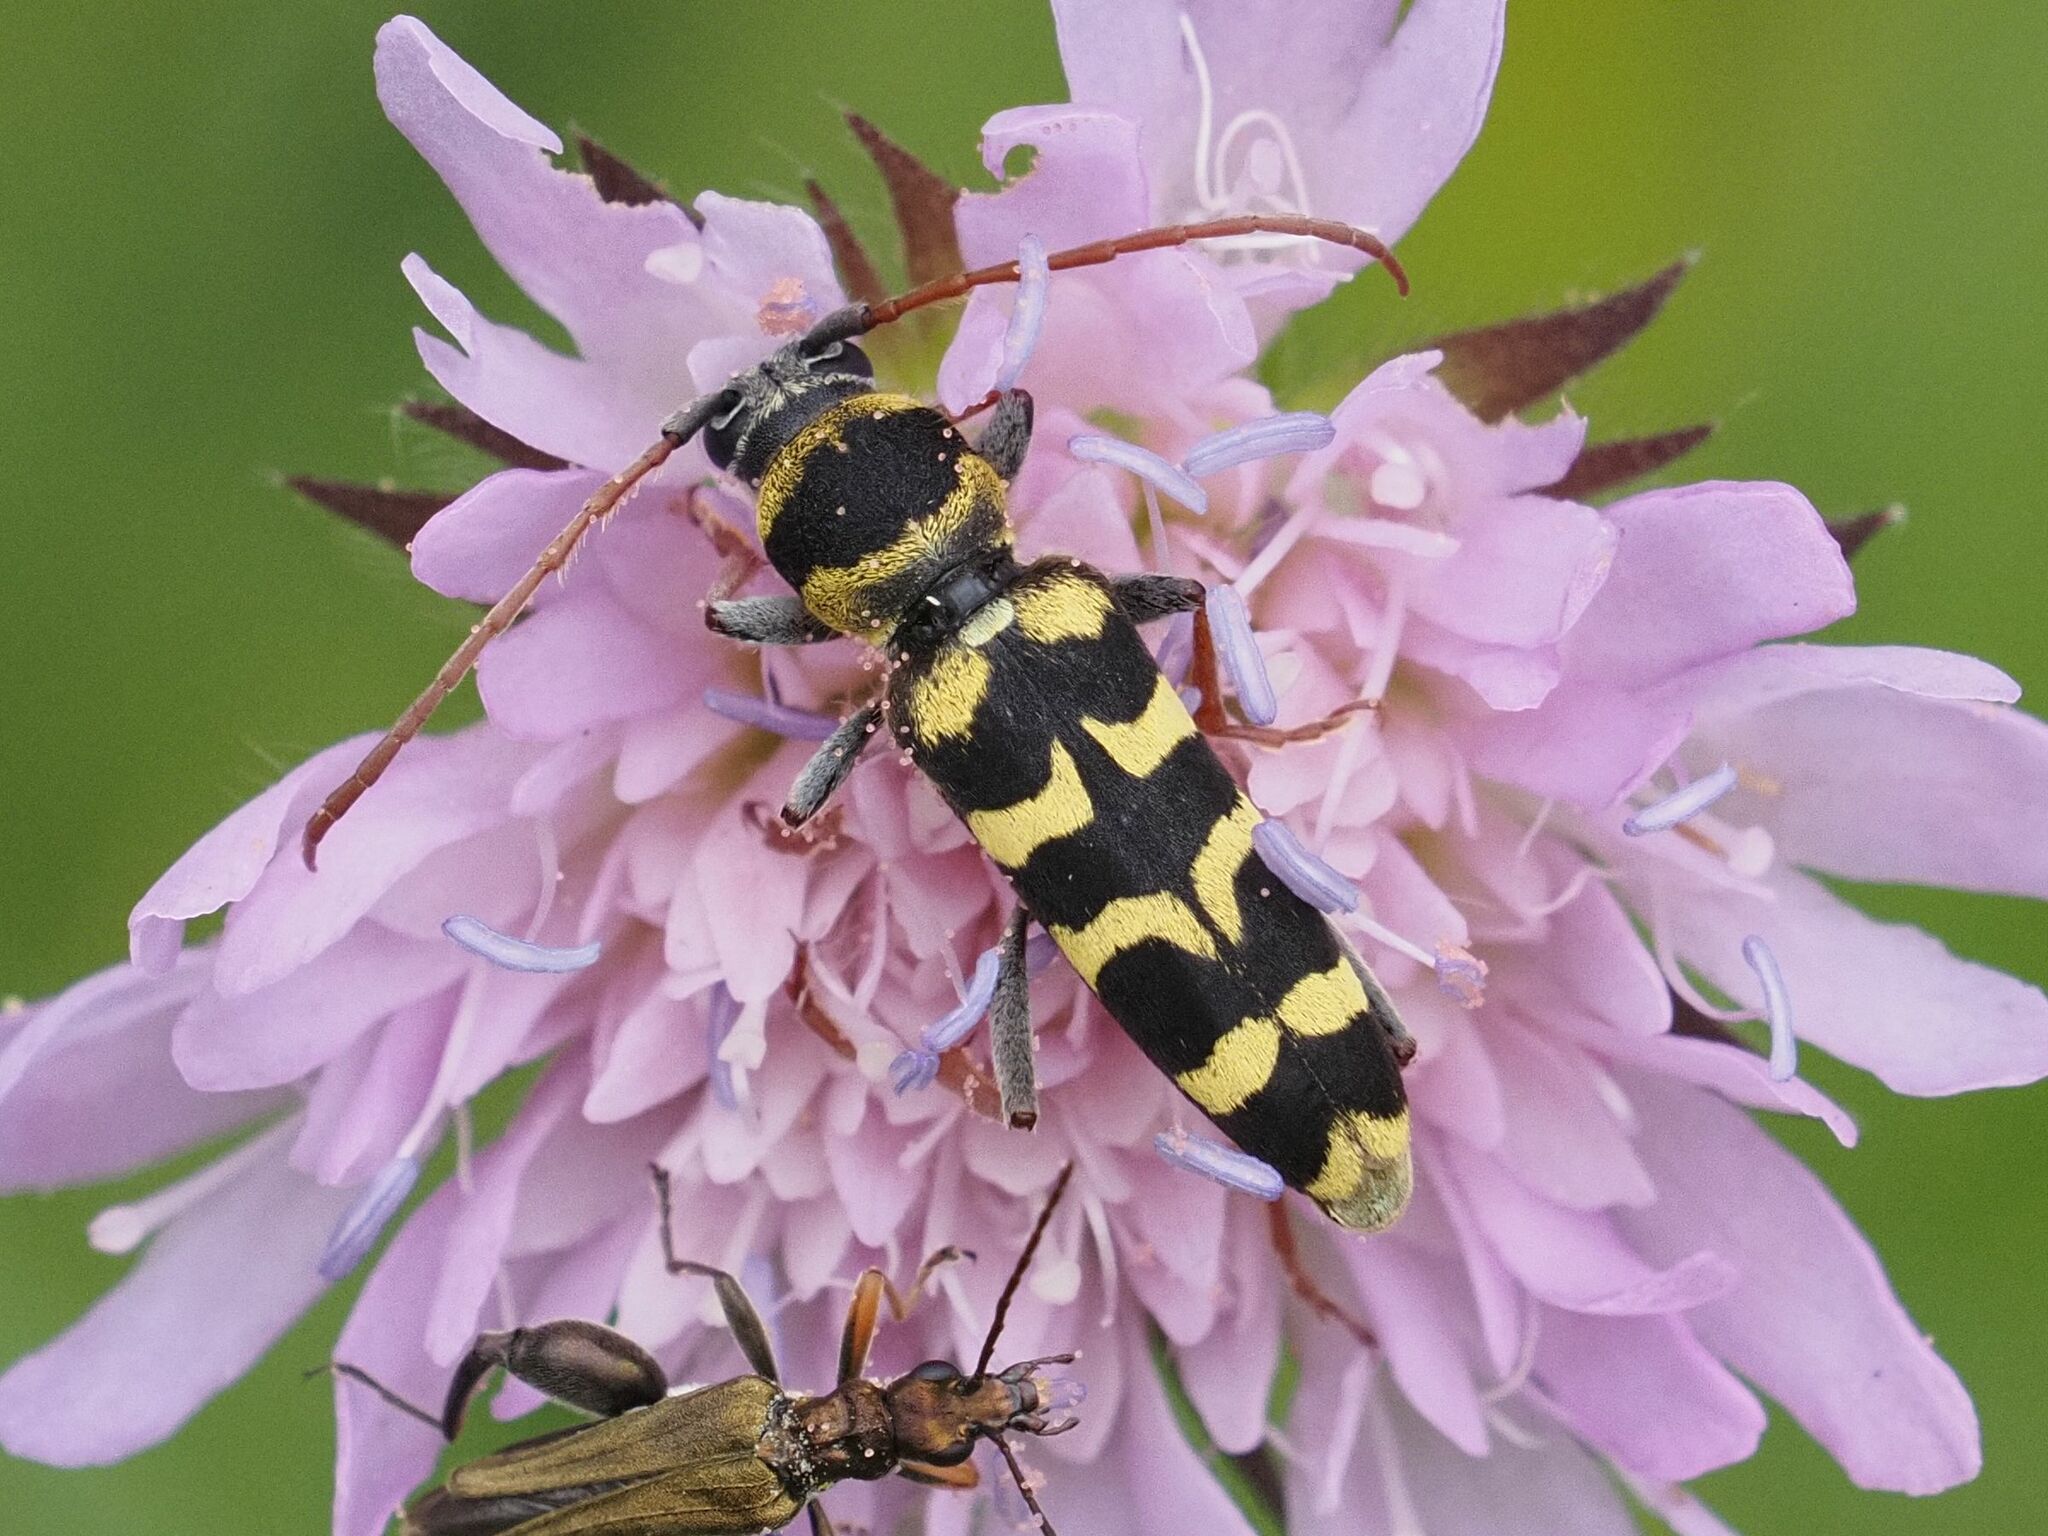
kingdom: Animalia
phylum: Arthropoda
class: Insecta
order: Coleoptera
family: Cerambycidae
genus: Plagionotus
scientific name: Plagionotus floralis
